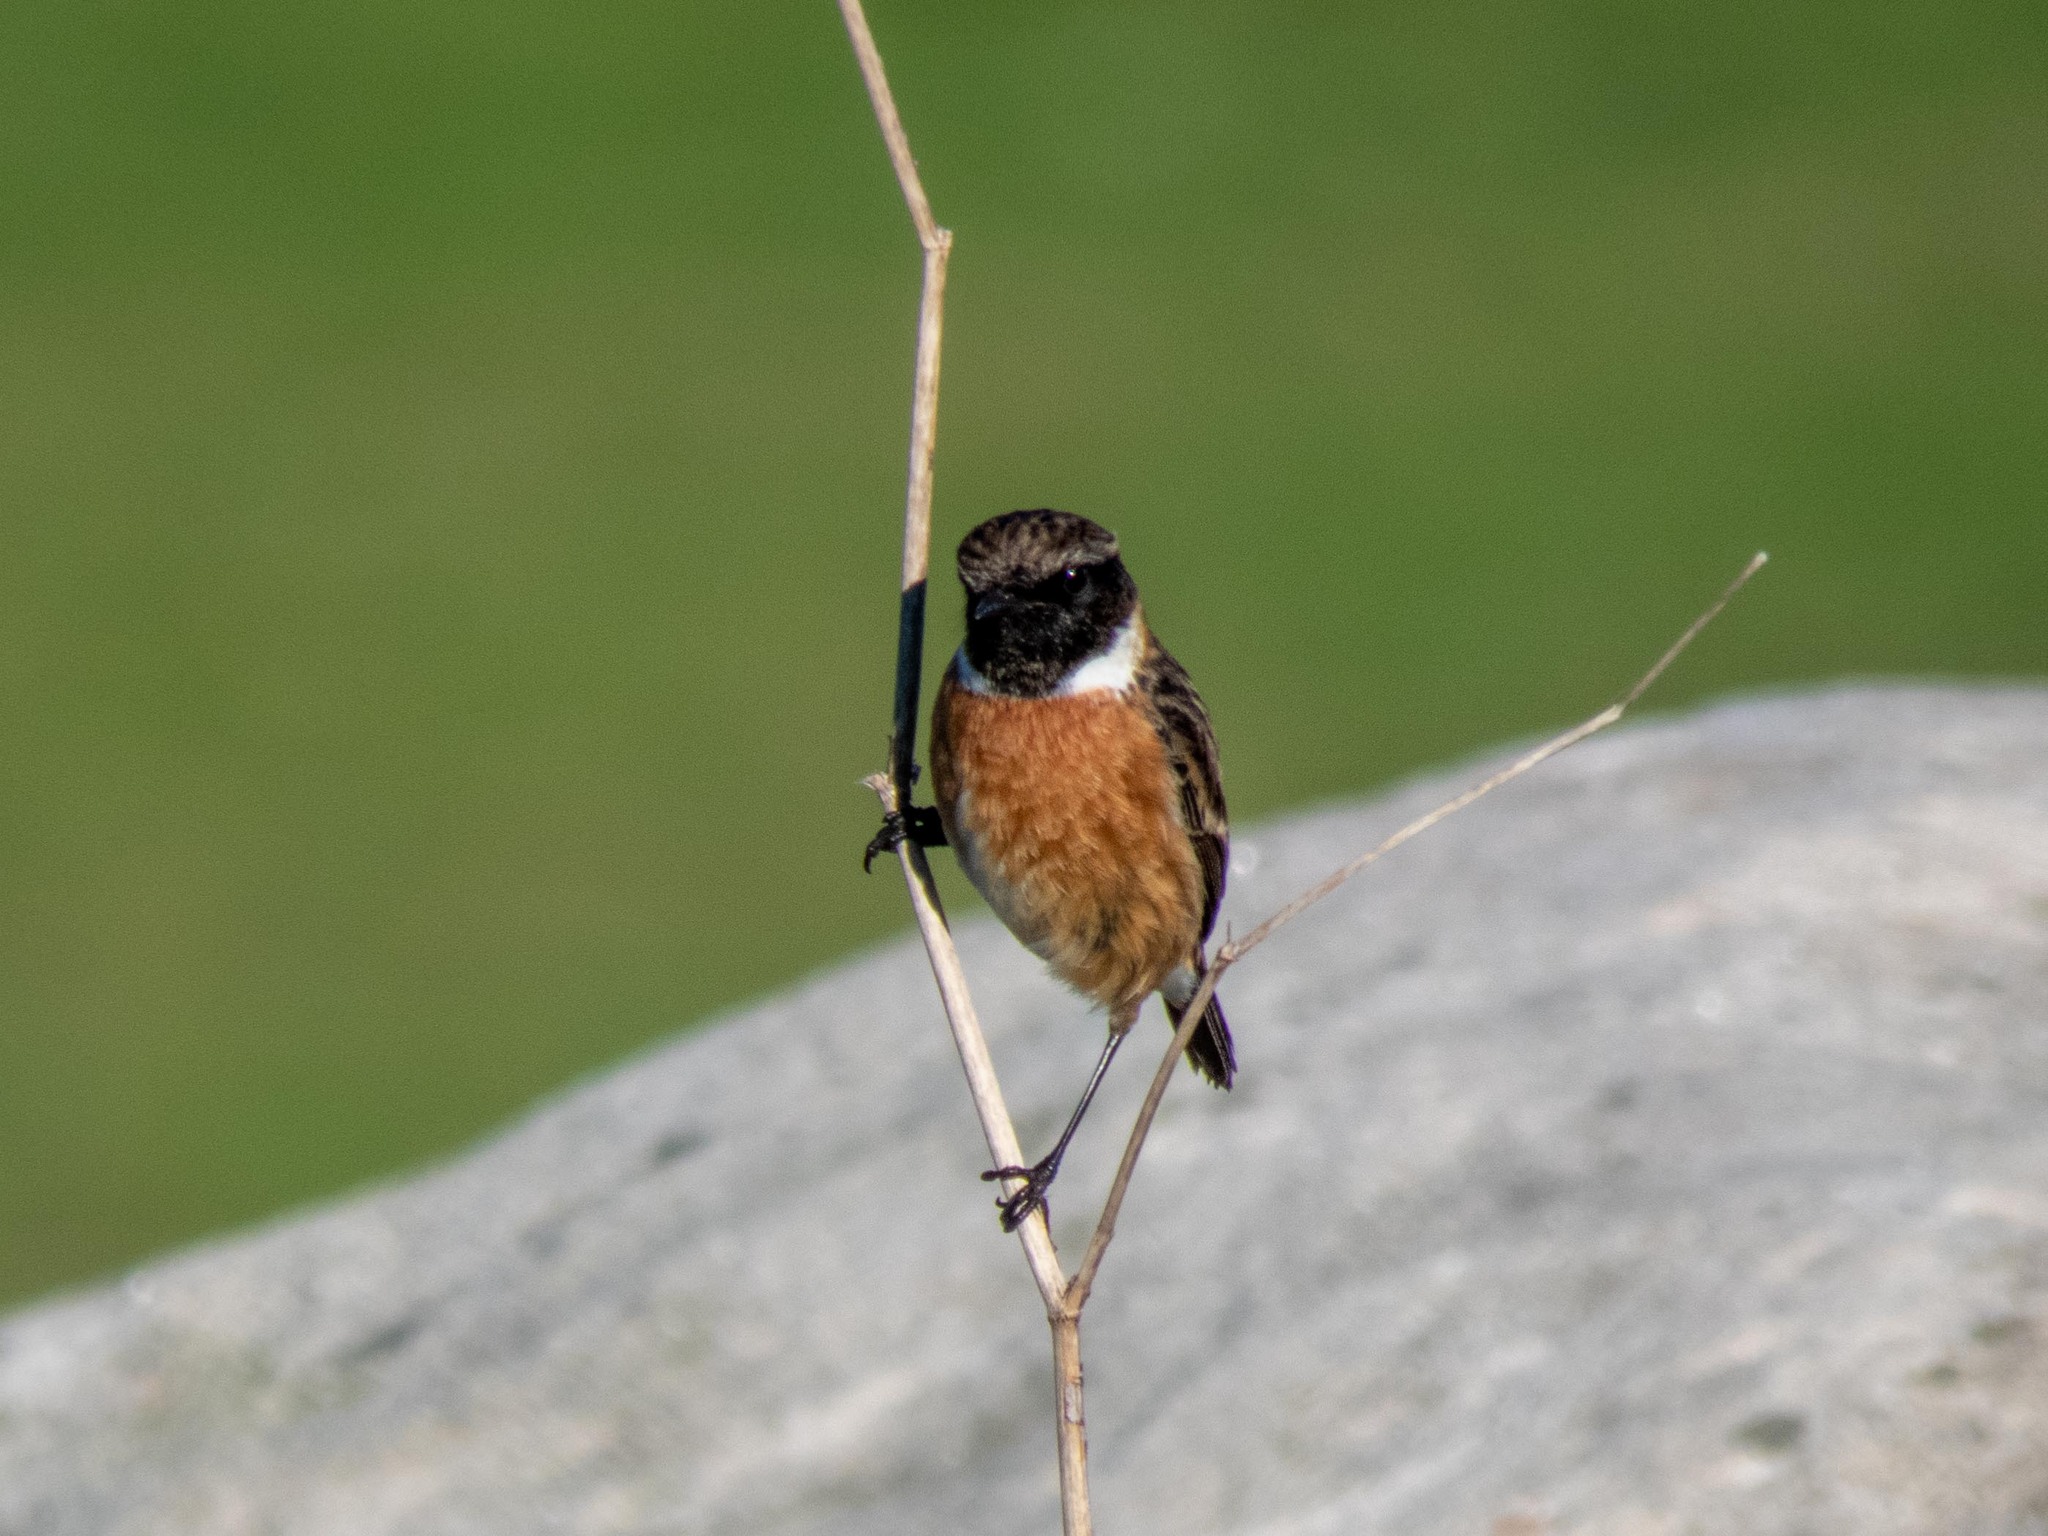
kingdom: Animalia
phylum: Chordata
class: Aves
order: Passeriformes
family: Muscicapidae
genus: Saxicola
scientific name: Saxicola rubicola
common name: European stonechat
